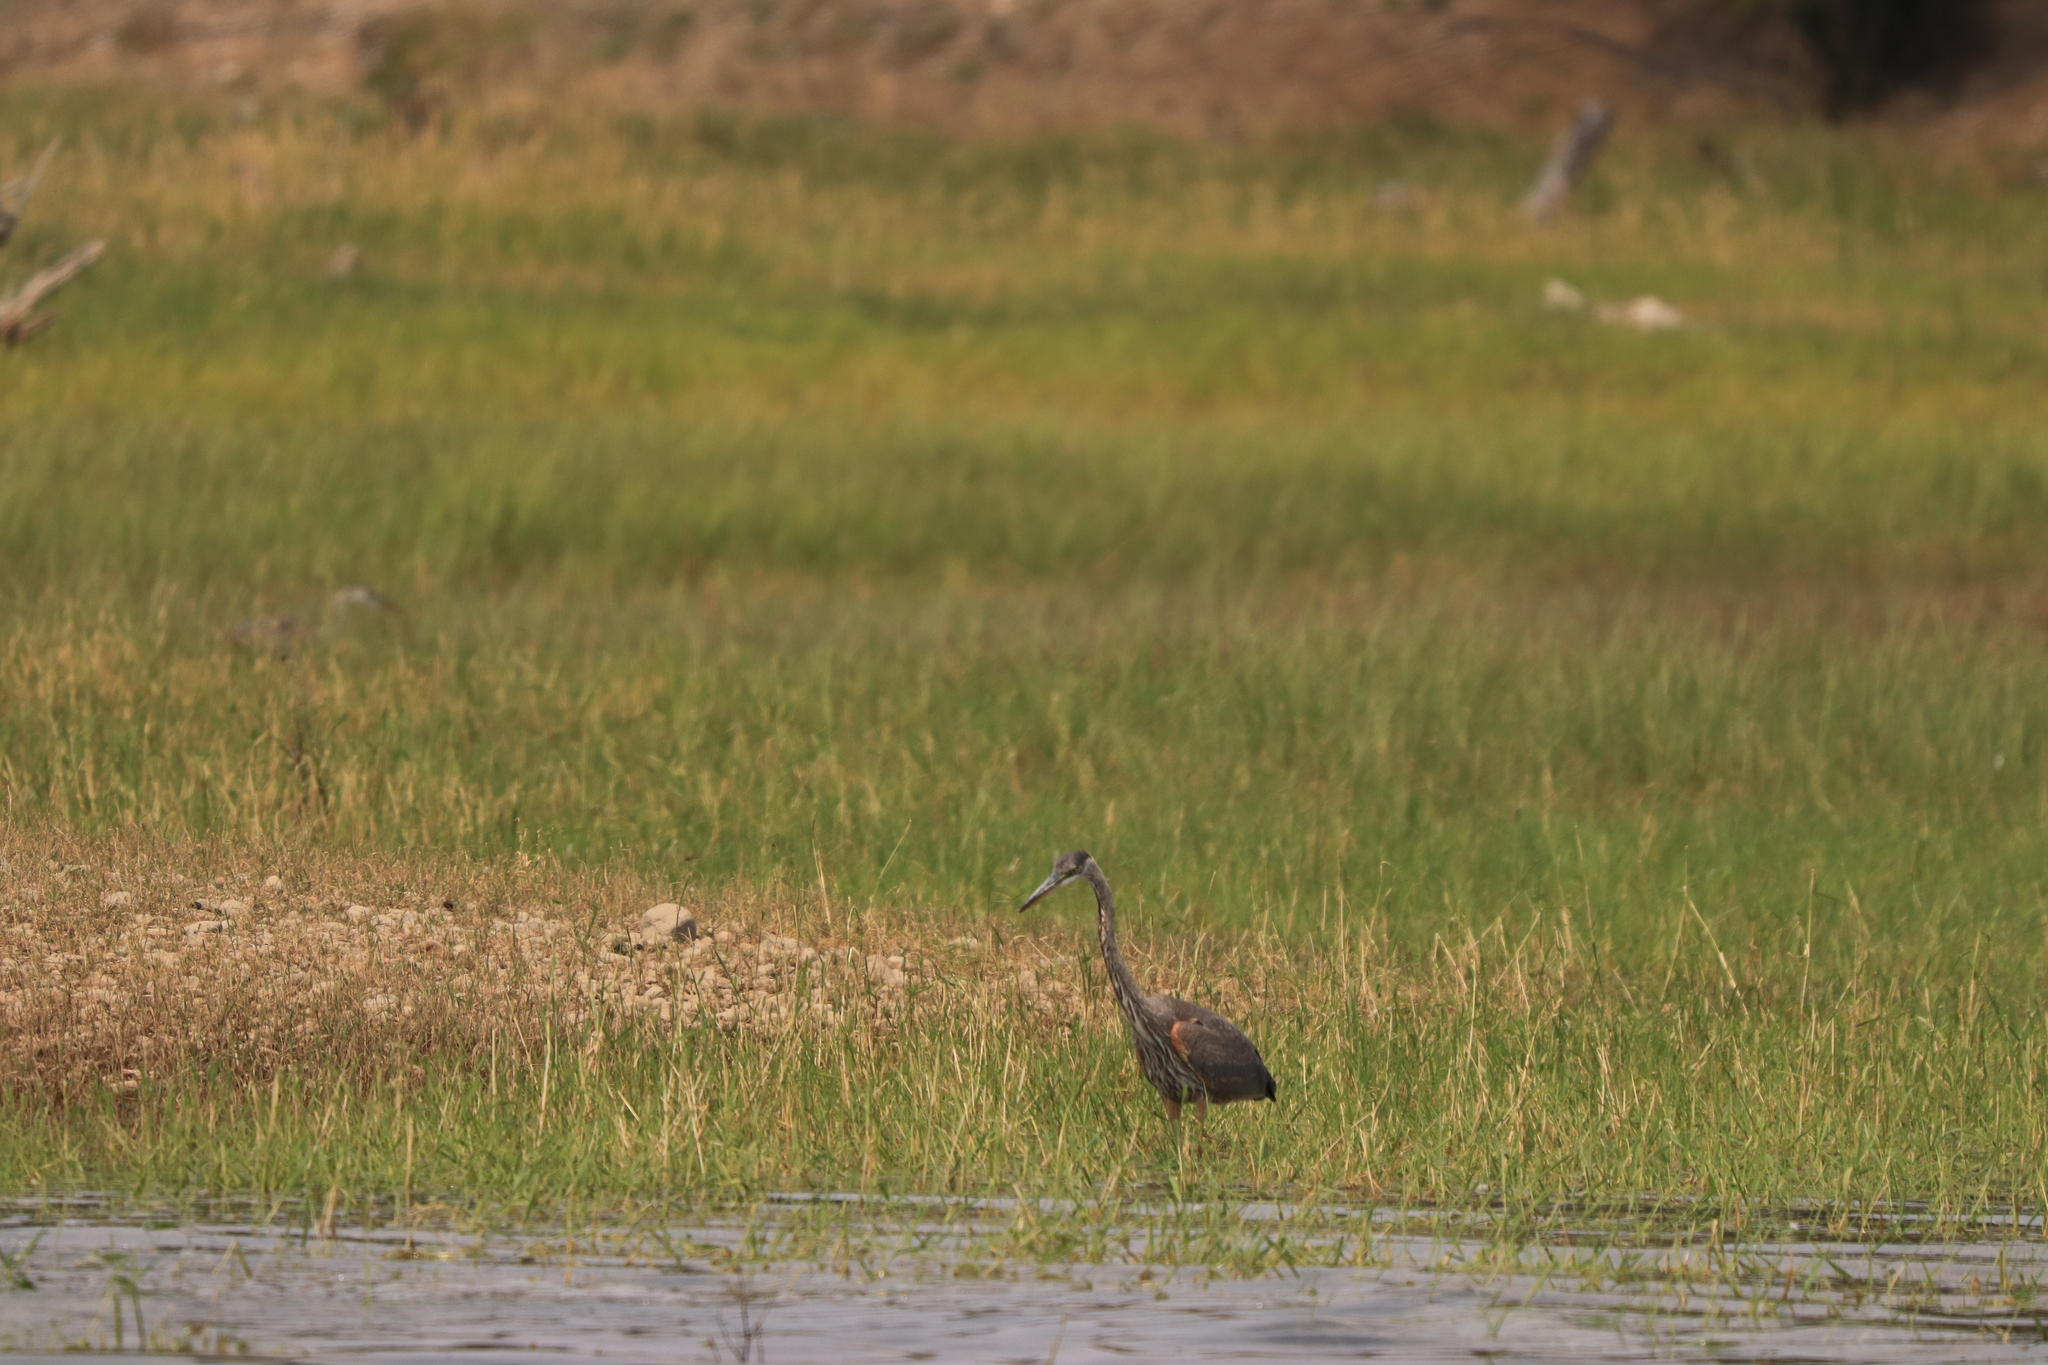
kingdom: Animalia
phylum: Chordata
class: Aves
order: Pelecaniformes
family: Ardeidae
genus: Ardea
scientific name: Ardea herodias
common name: Great blue heron
